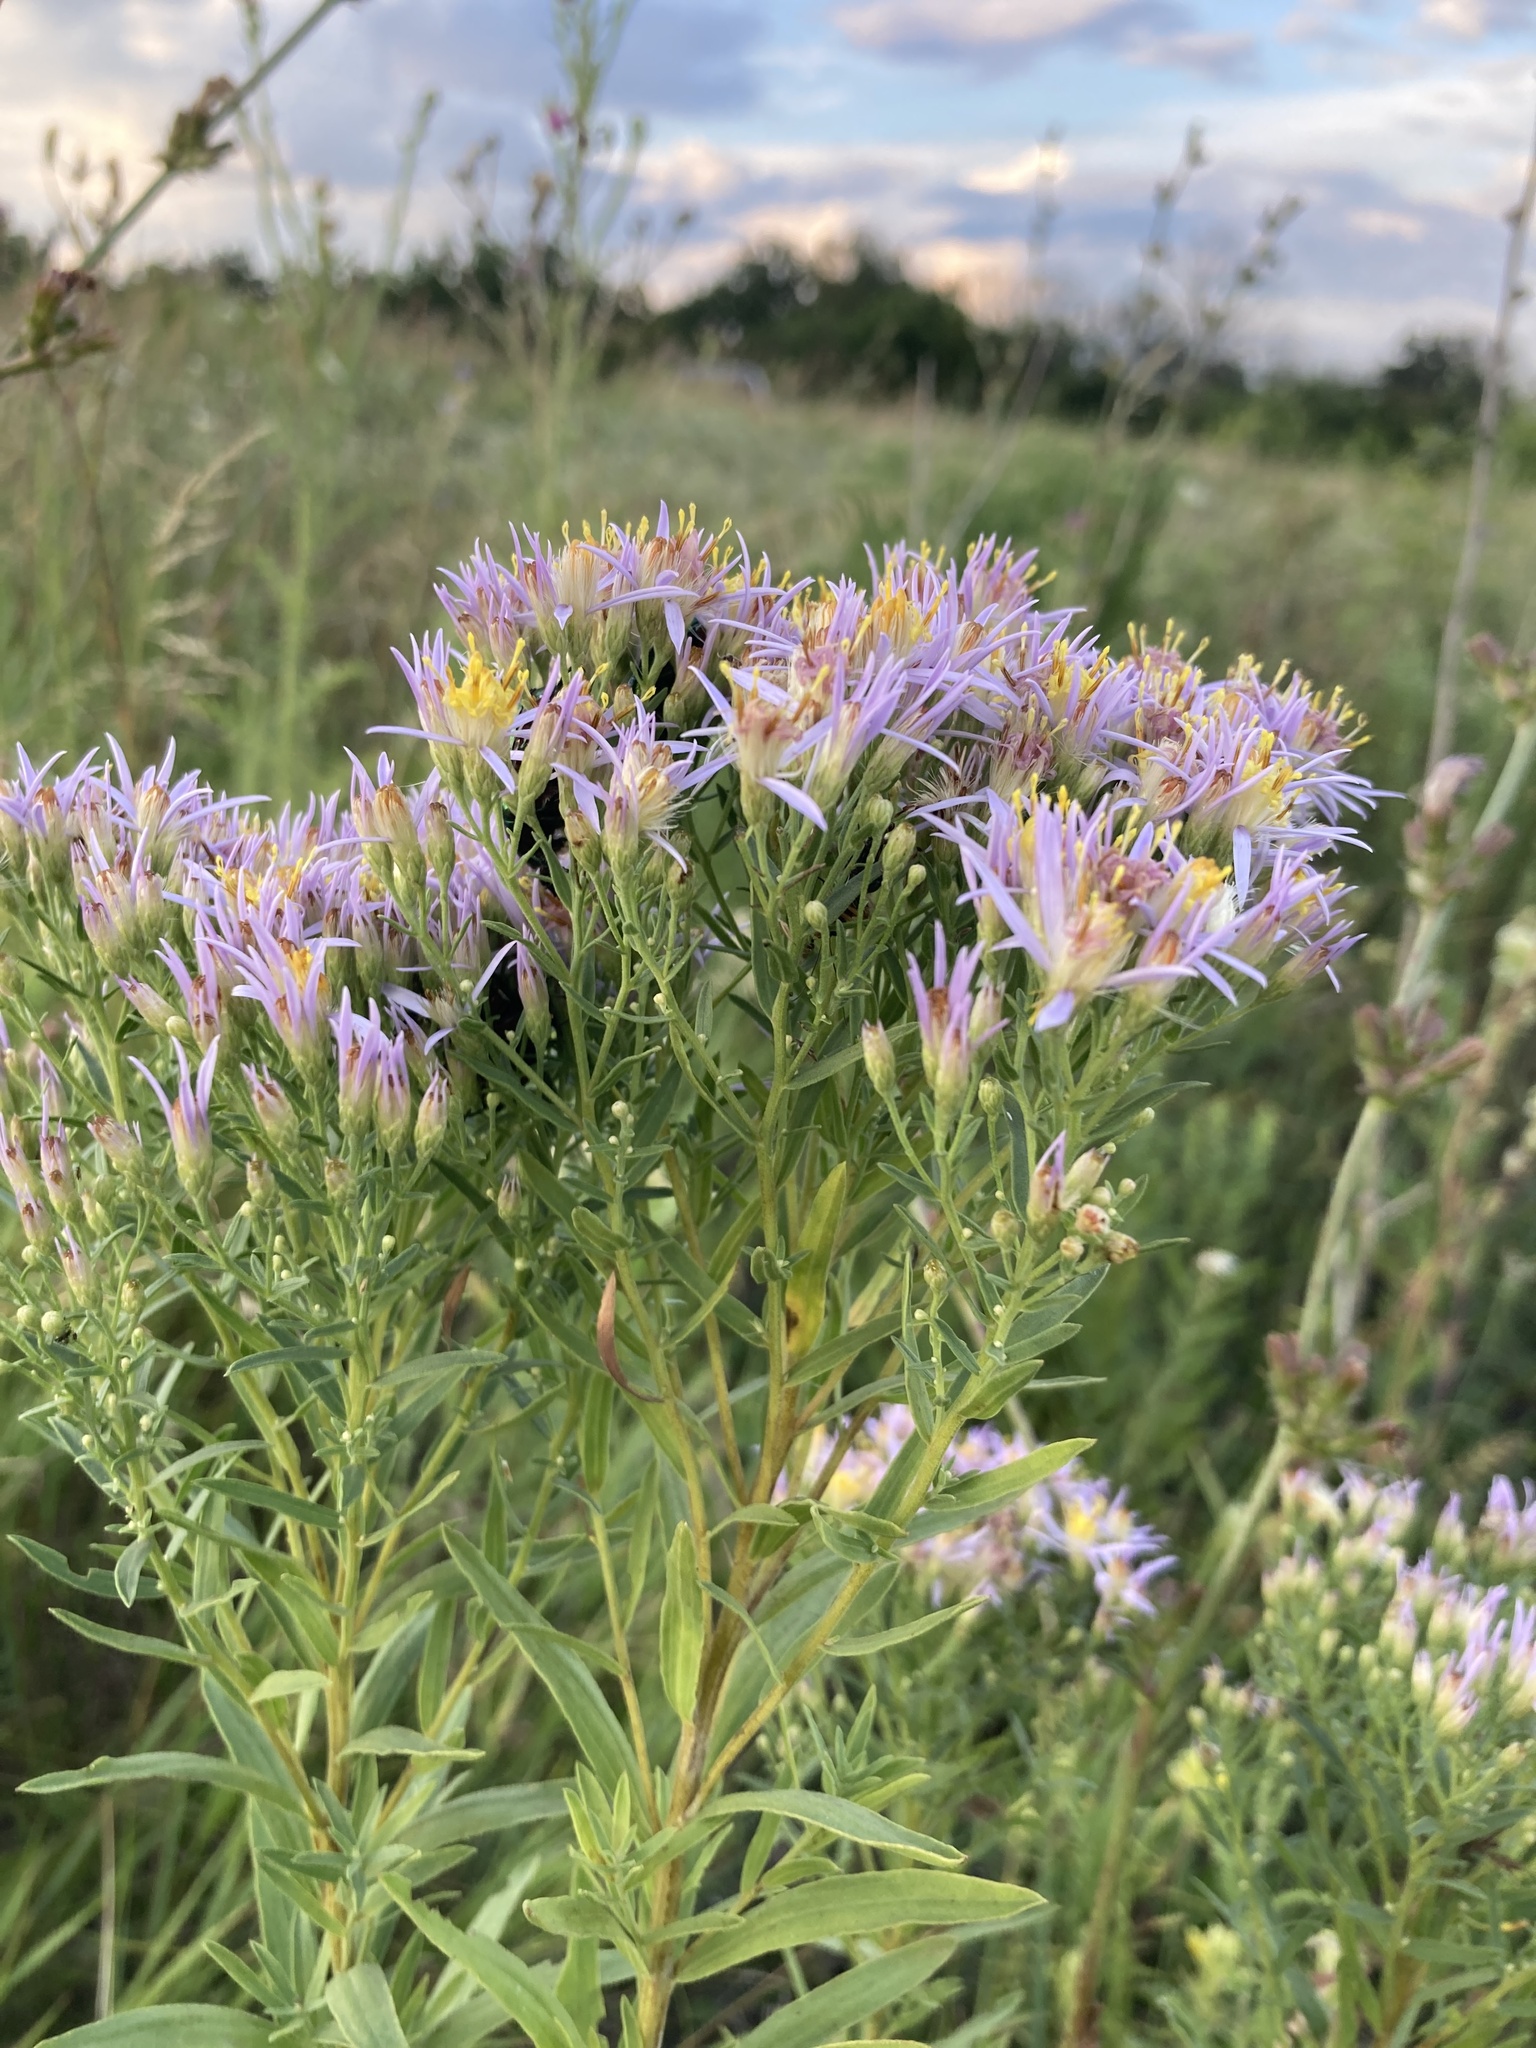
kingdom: Plantae
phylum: Tracheophyta
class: Magnoliopsida
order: Asterales
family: Asteraceae
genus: Galatella
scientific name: Galatella sedifolia
